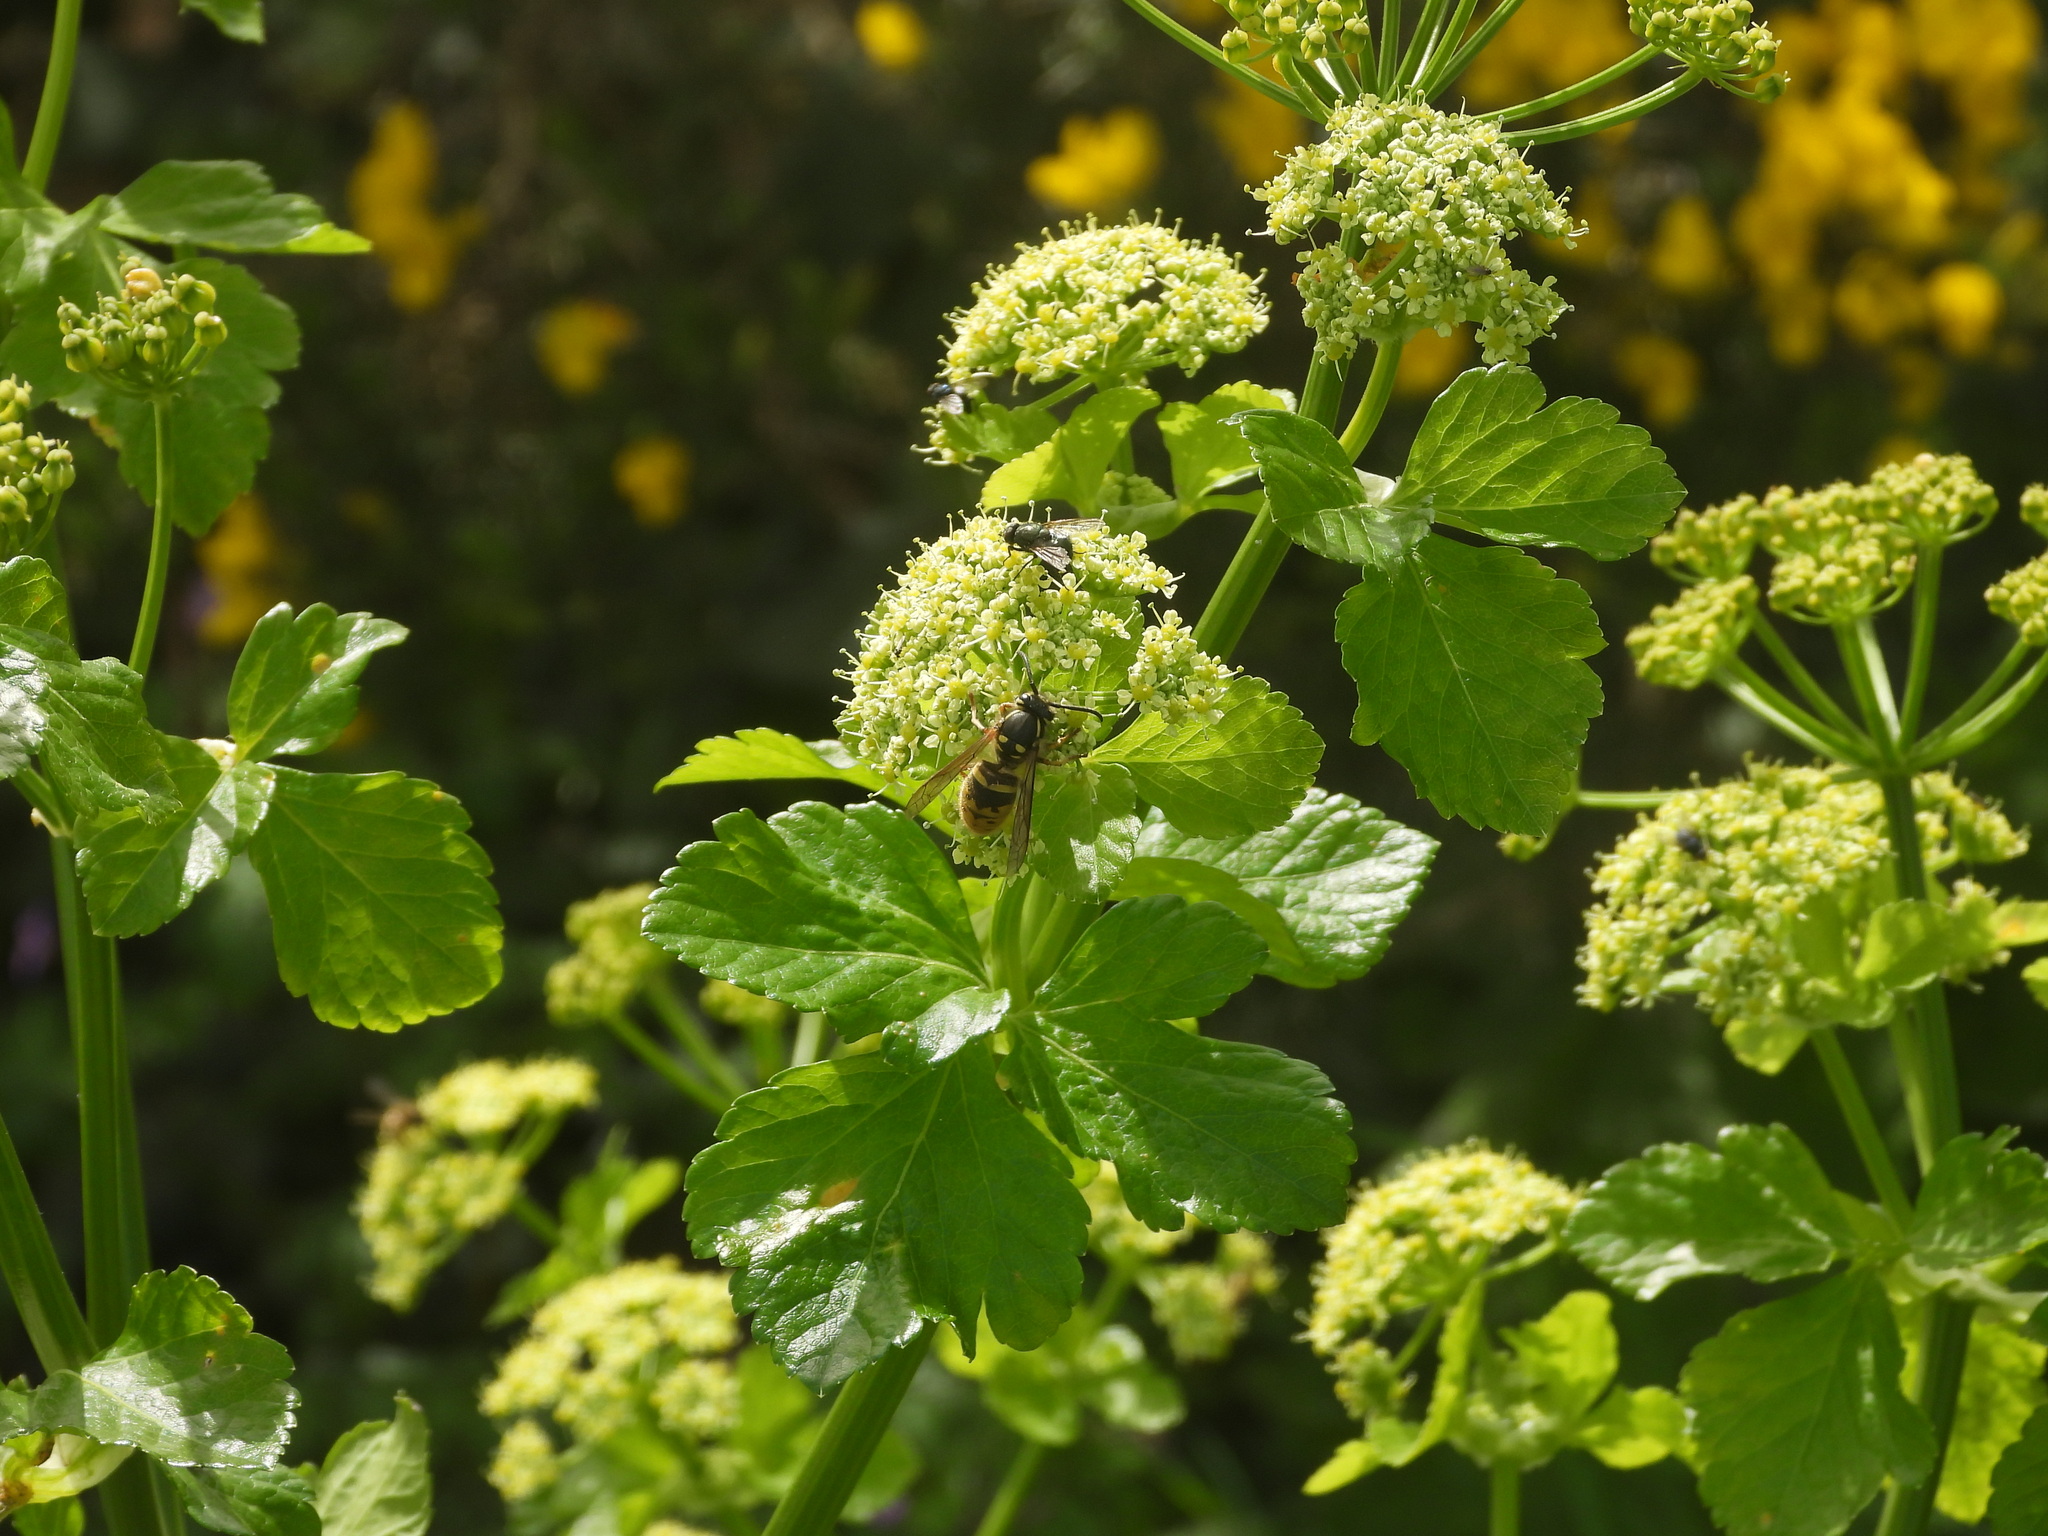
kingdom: Animalia
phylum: Arthropoda
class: Insecta
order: Hymenoptera
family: Vespidae
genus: Vespula
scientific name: Vespula vulgaris
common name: Common wasp
